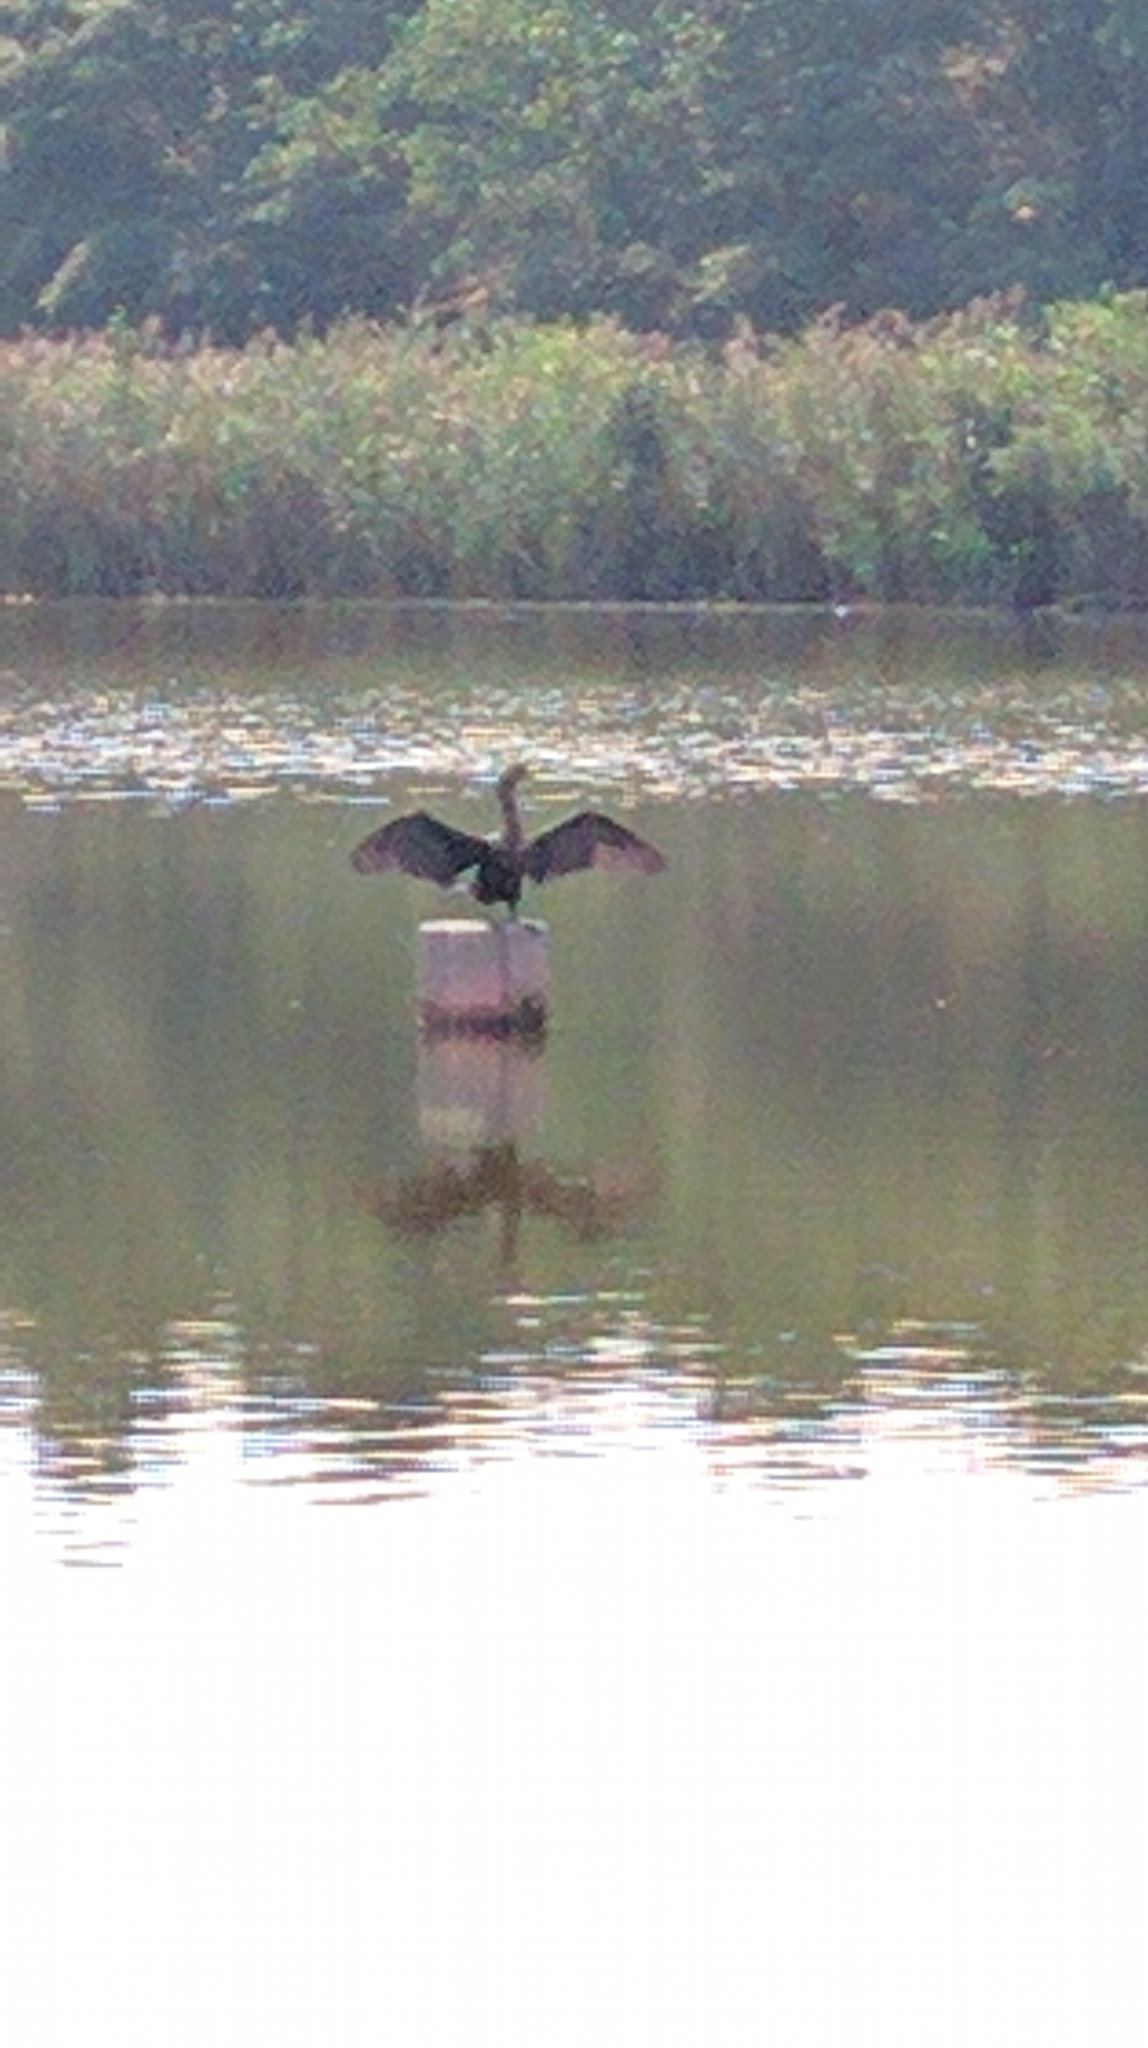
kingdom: Animalia
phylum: Chordata
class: Aves
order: Suliformes
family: Phalacrocoracidae
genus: Phalacrocorax
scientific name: Phalacrocorax auritus
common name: Double-crested cormorant
